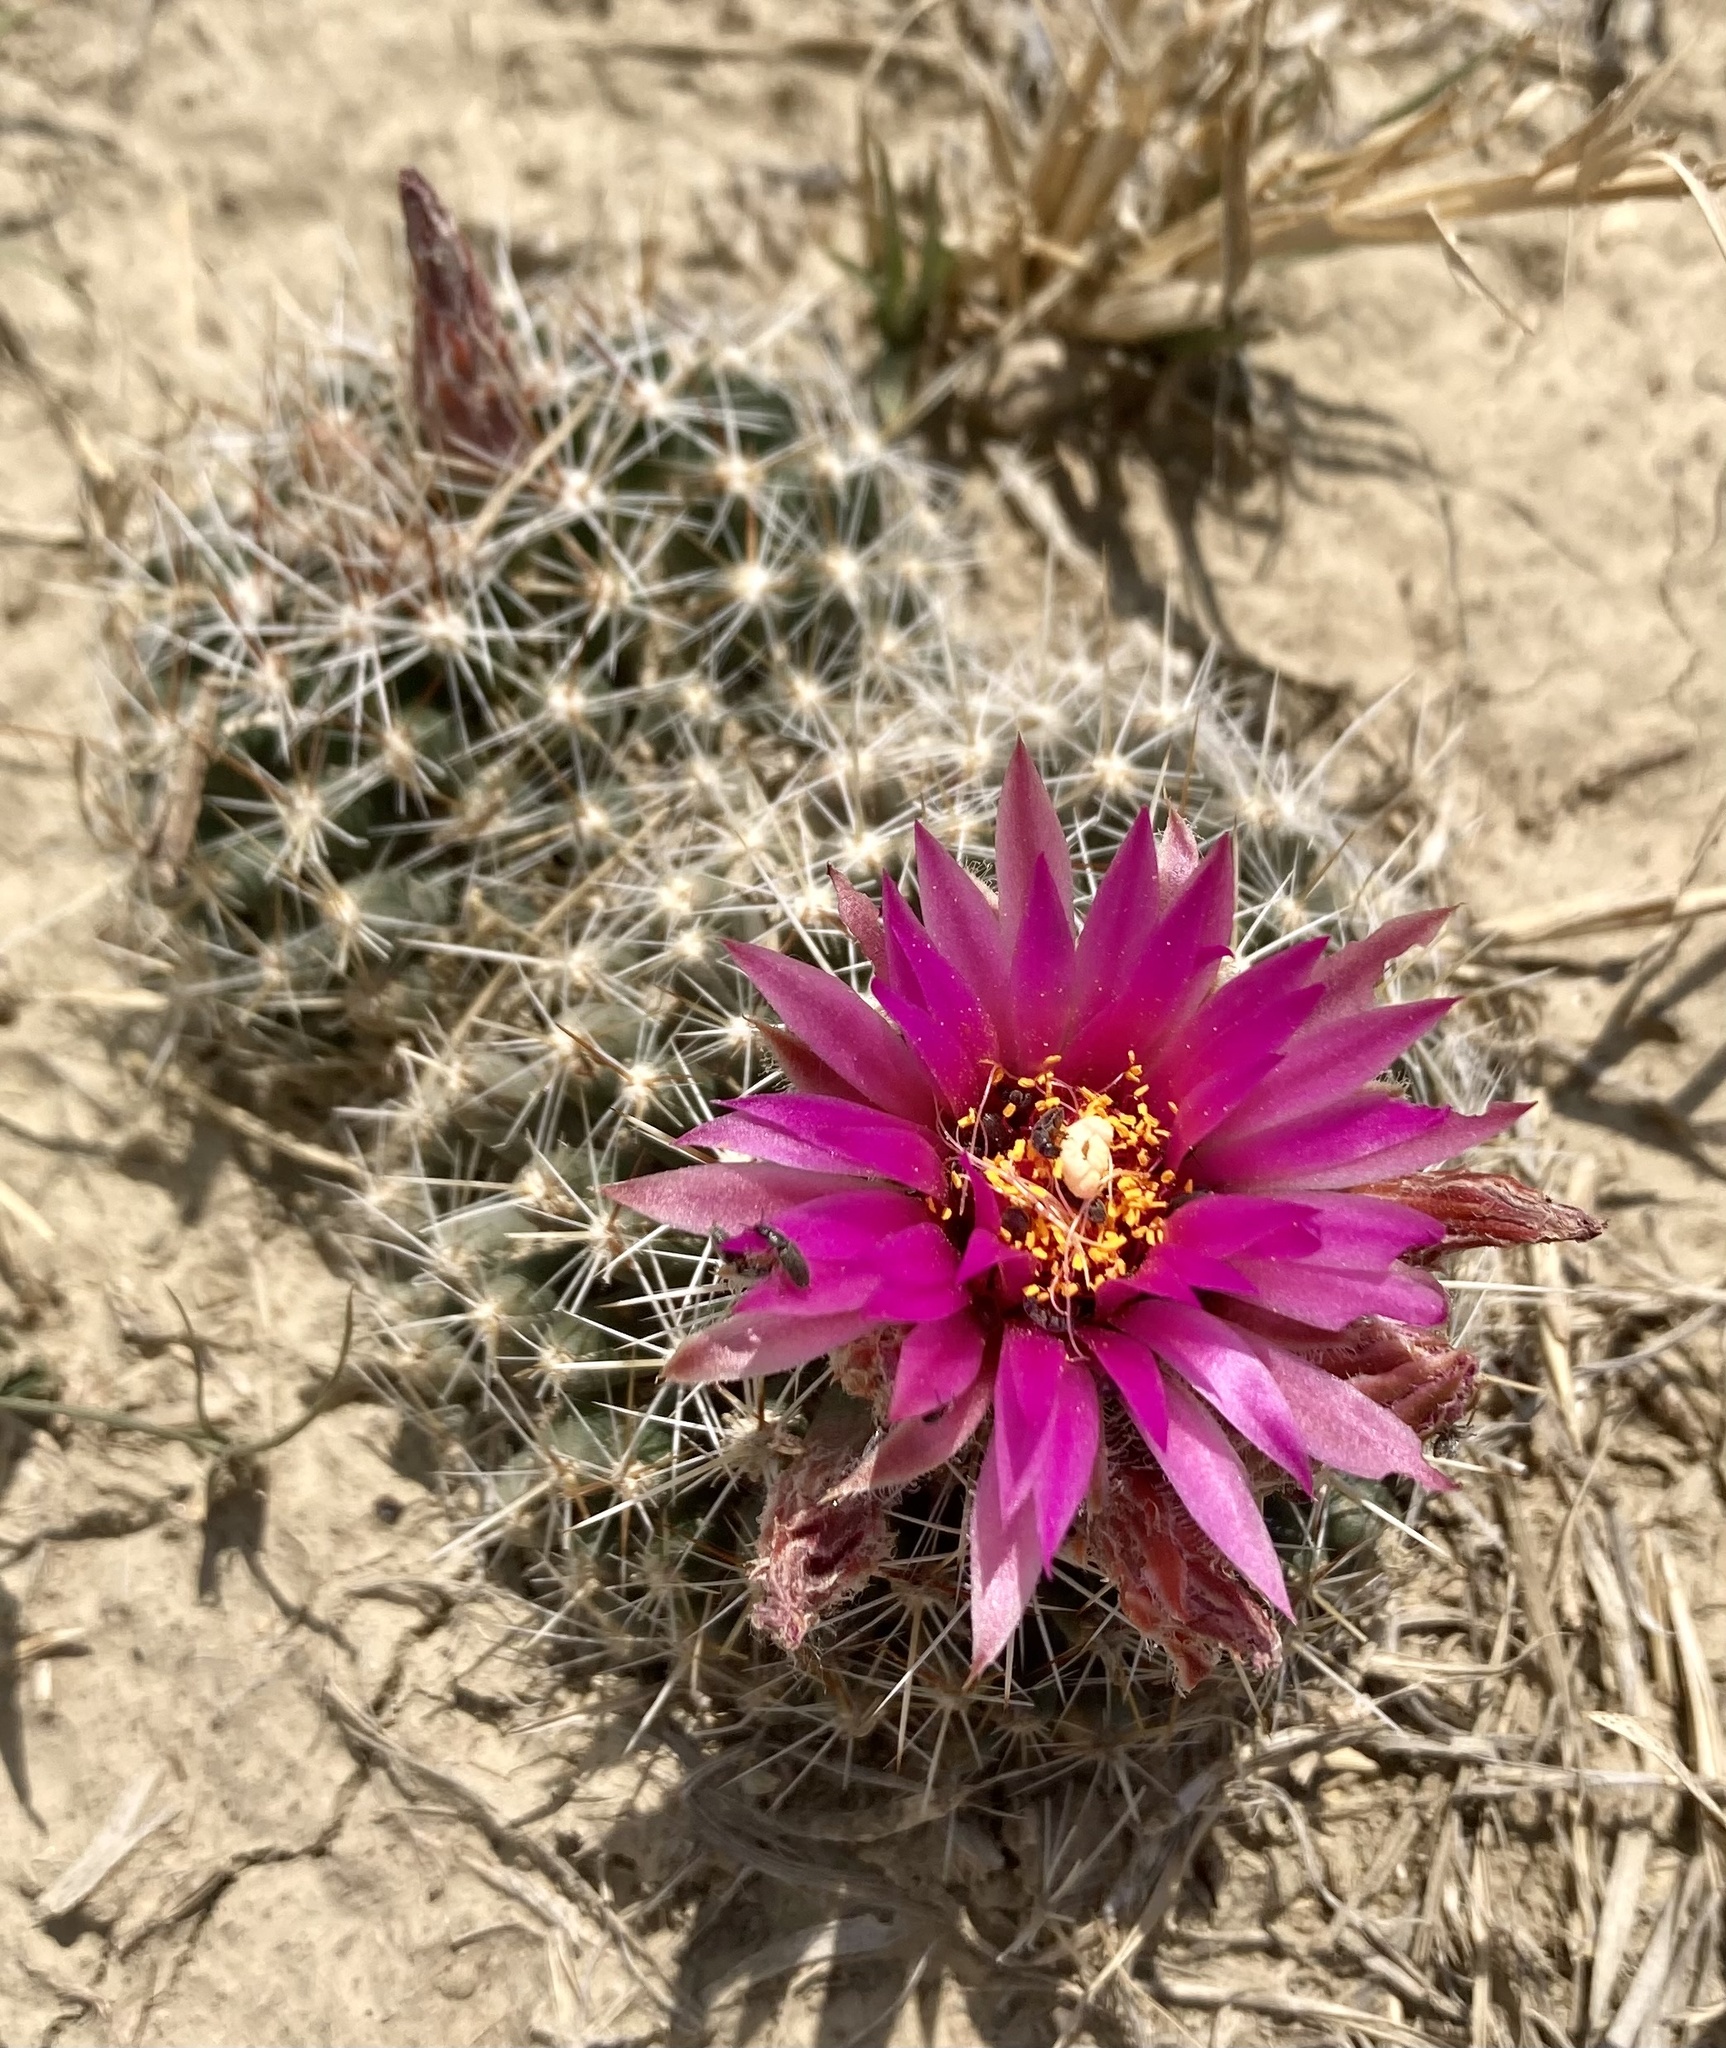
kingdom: Plantae
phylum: Tracheophyta
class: Magnoliopsida
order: Caryophyllales
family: Cactaceae
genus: Pelecyphora
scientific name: Pelecyphora vivipara
